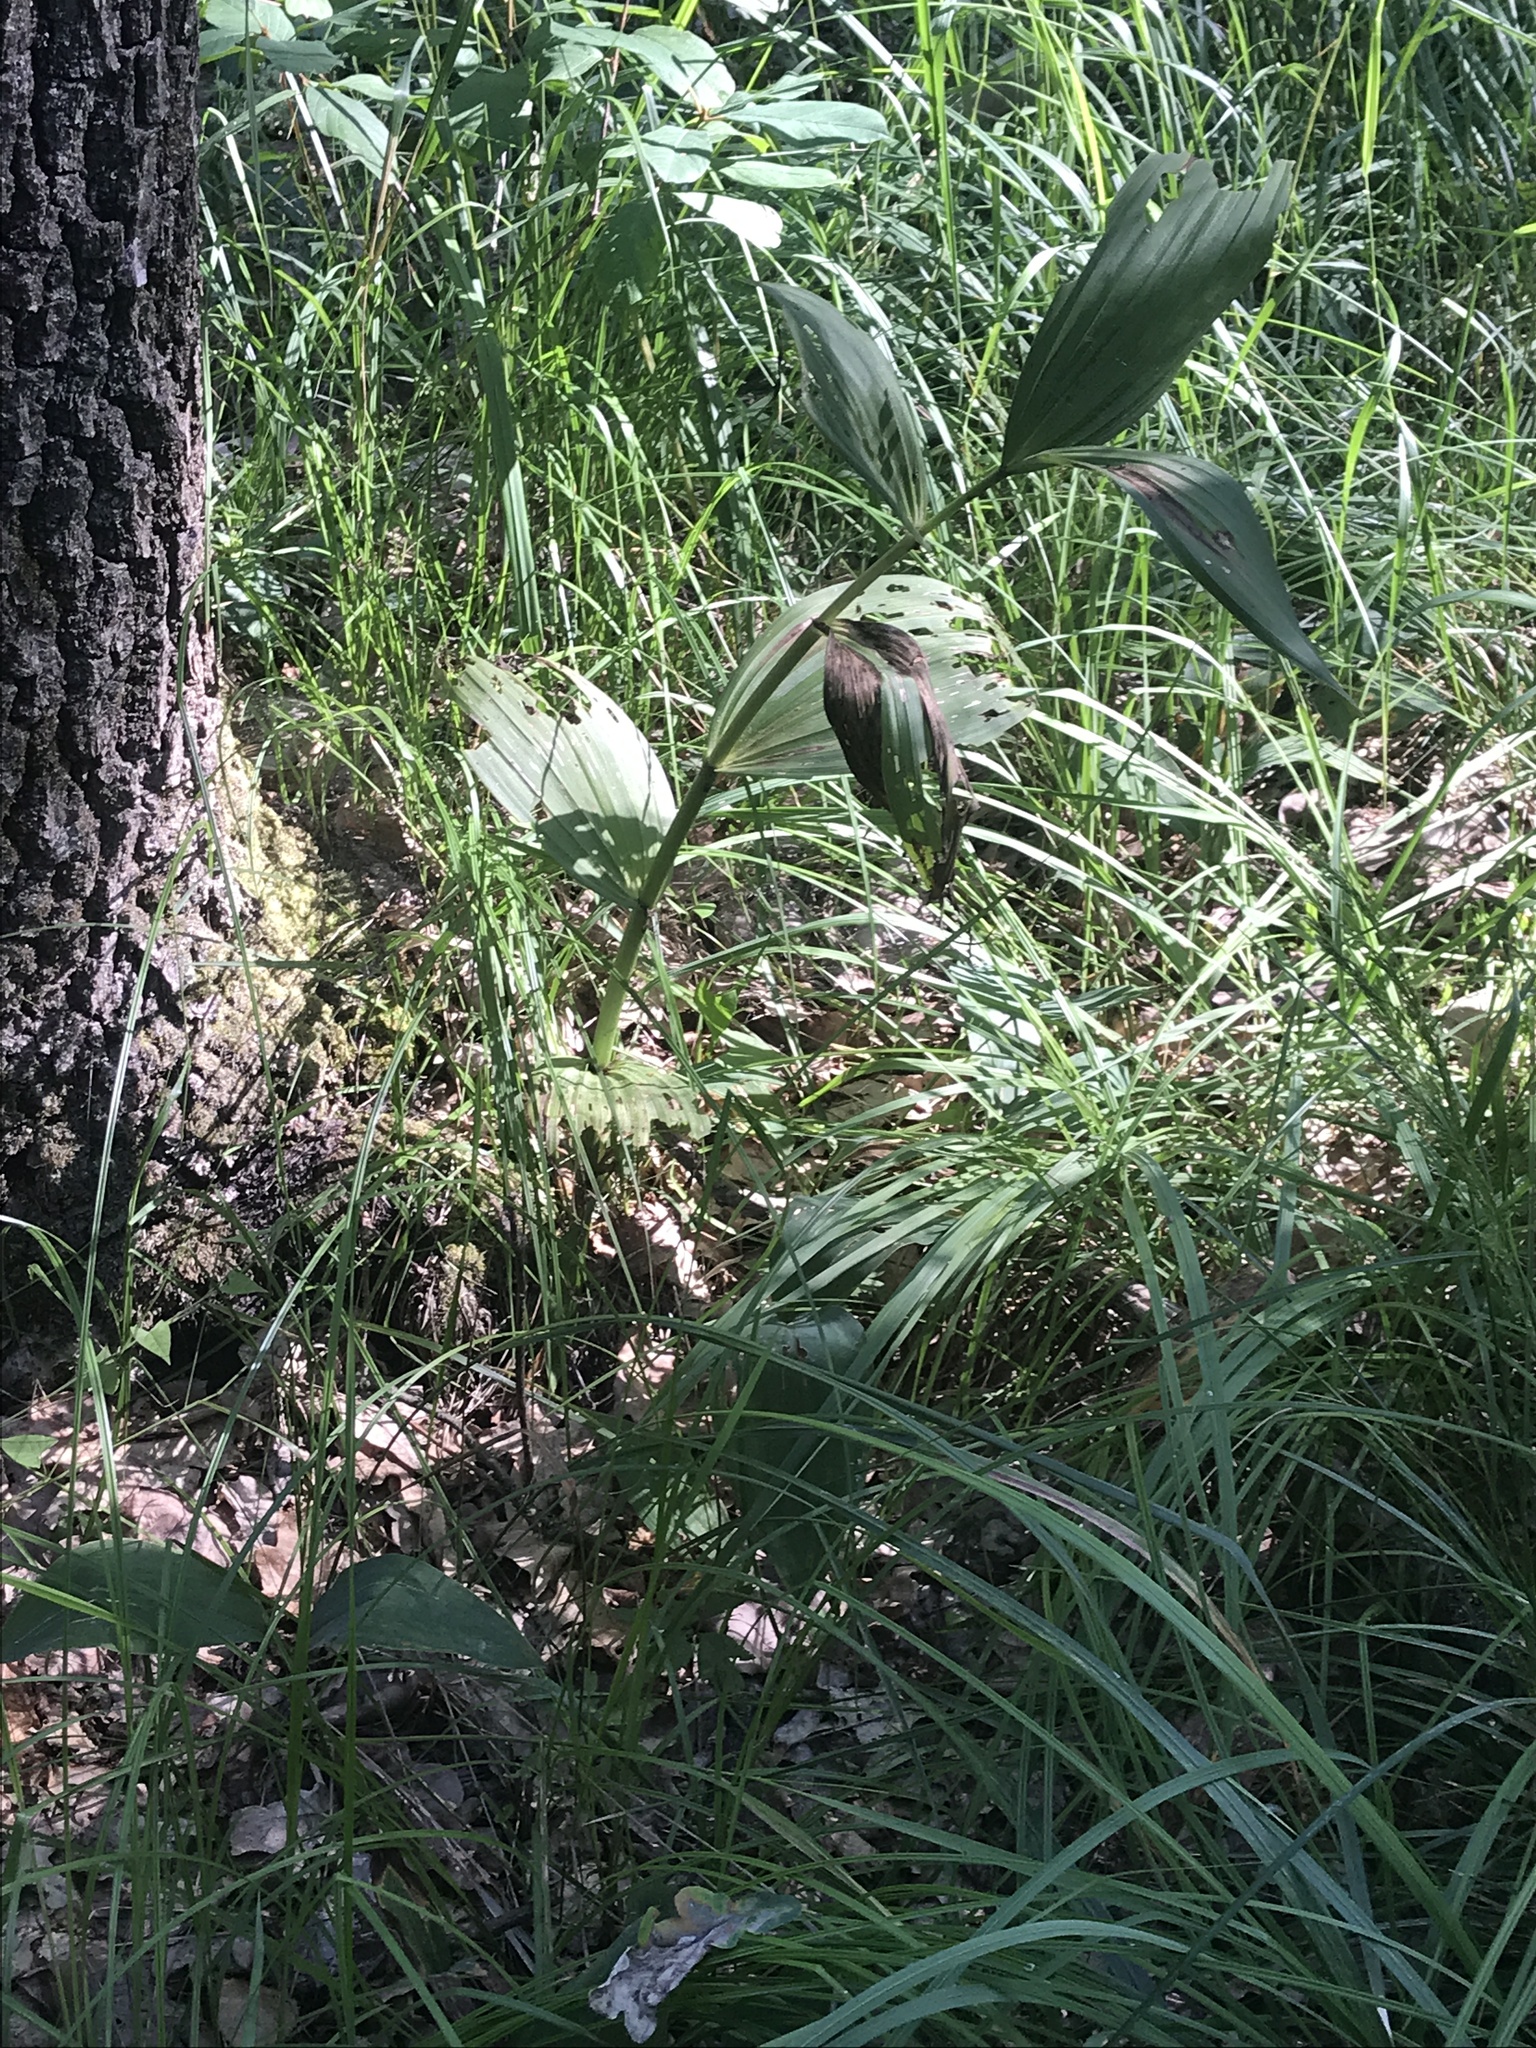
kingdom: Plantae
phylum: Tracheophyta
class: Liliopsida
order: Liliales
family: Melanthiaceae
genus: Veratrum
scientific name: Veratrum lobelianum
